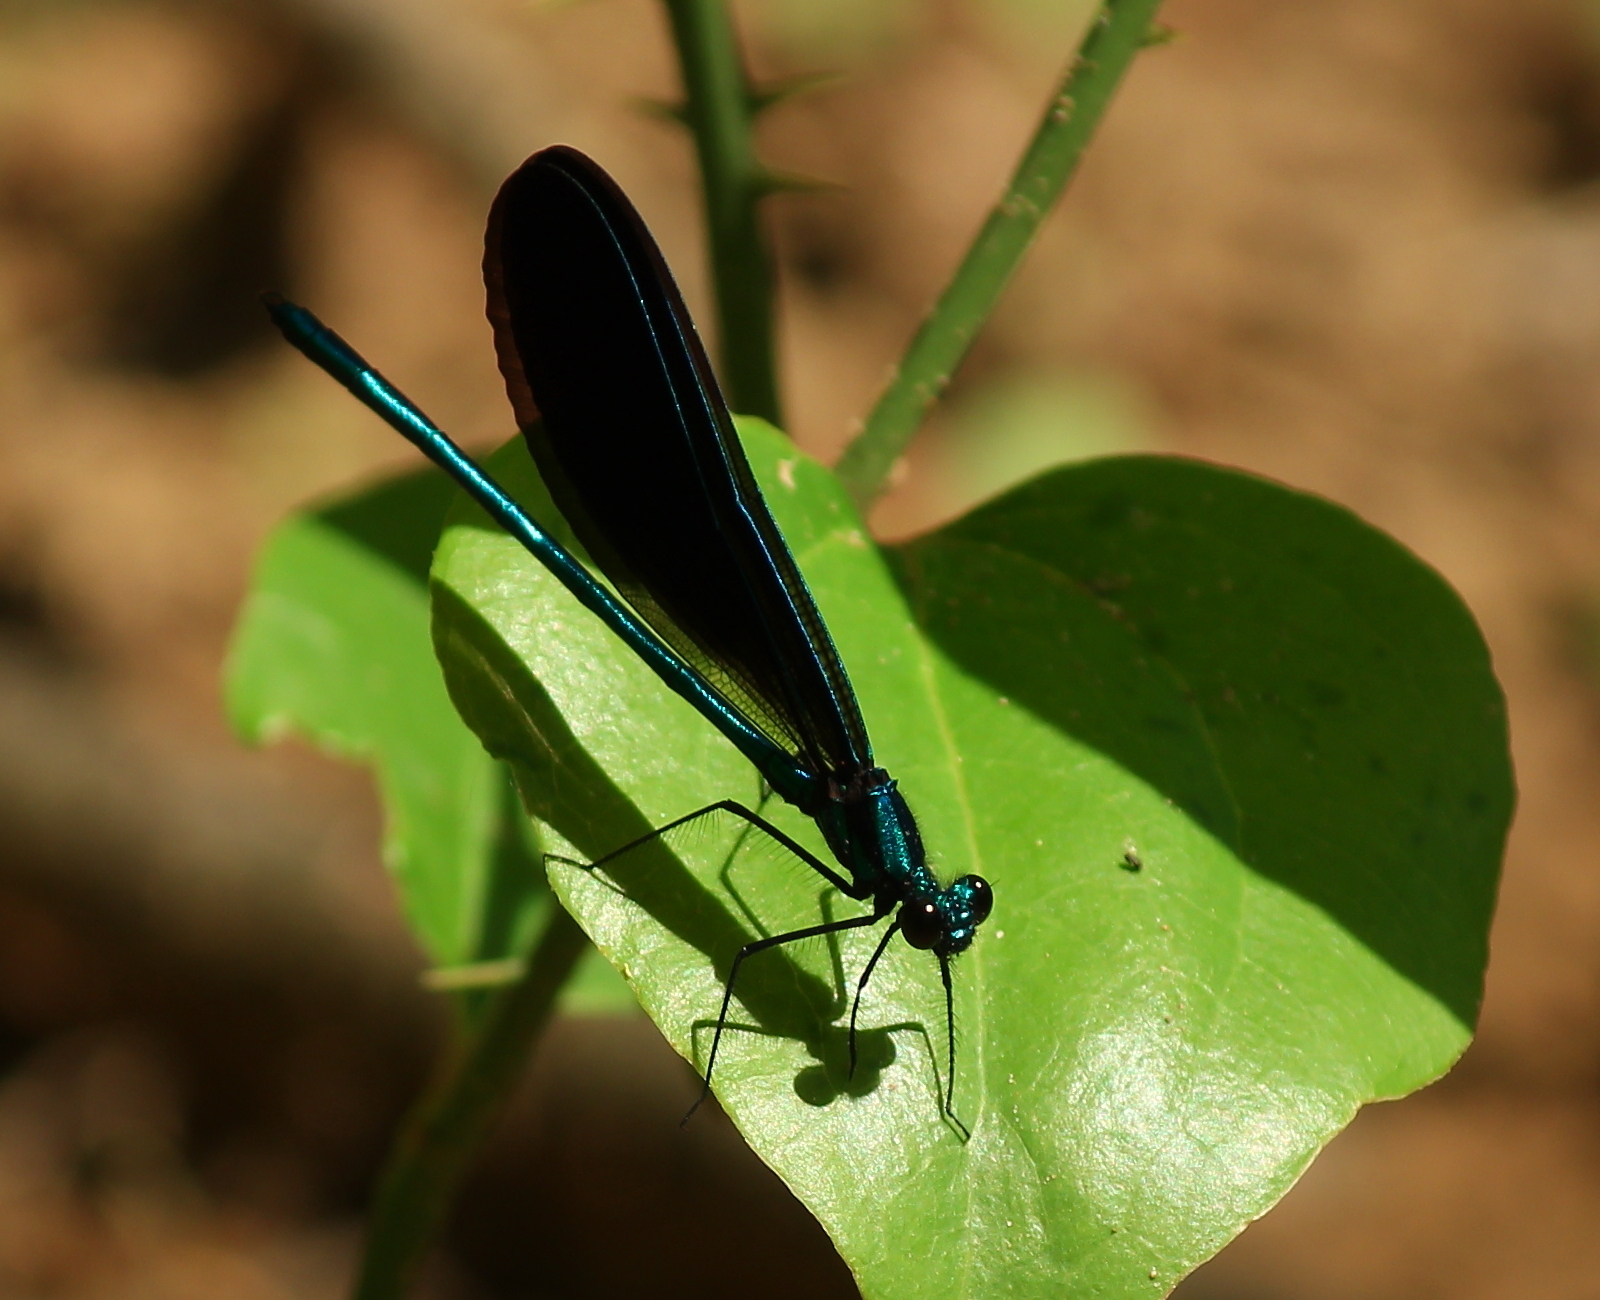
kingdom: Animalia
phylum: Arthropoda
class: Insecta
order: Odonata
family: Calopterygidae
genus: Calopteryx
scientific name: Calopteryx maculata
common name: Ebony jewelwing
